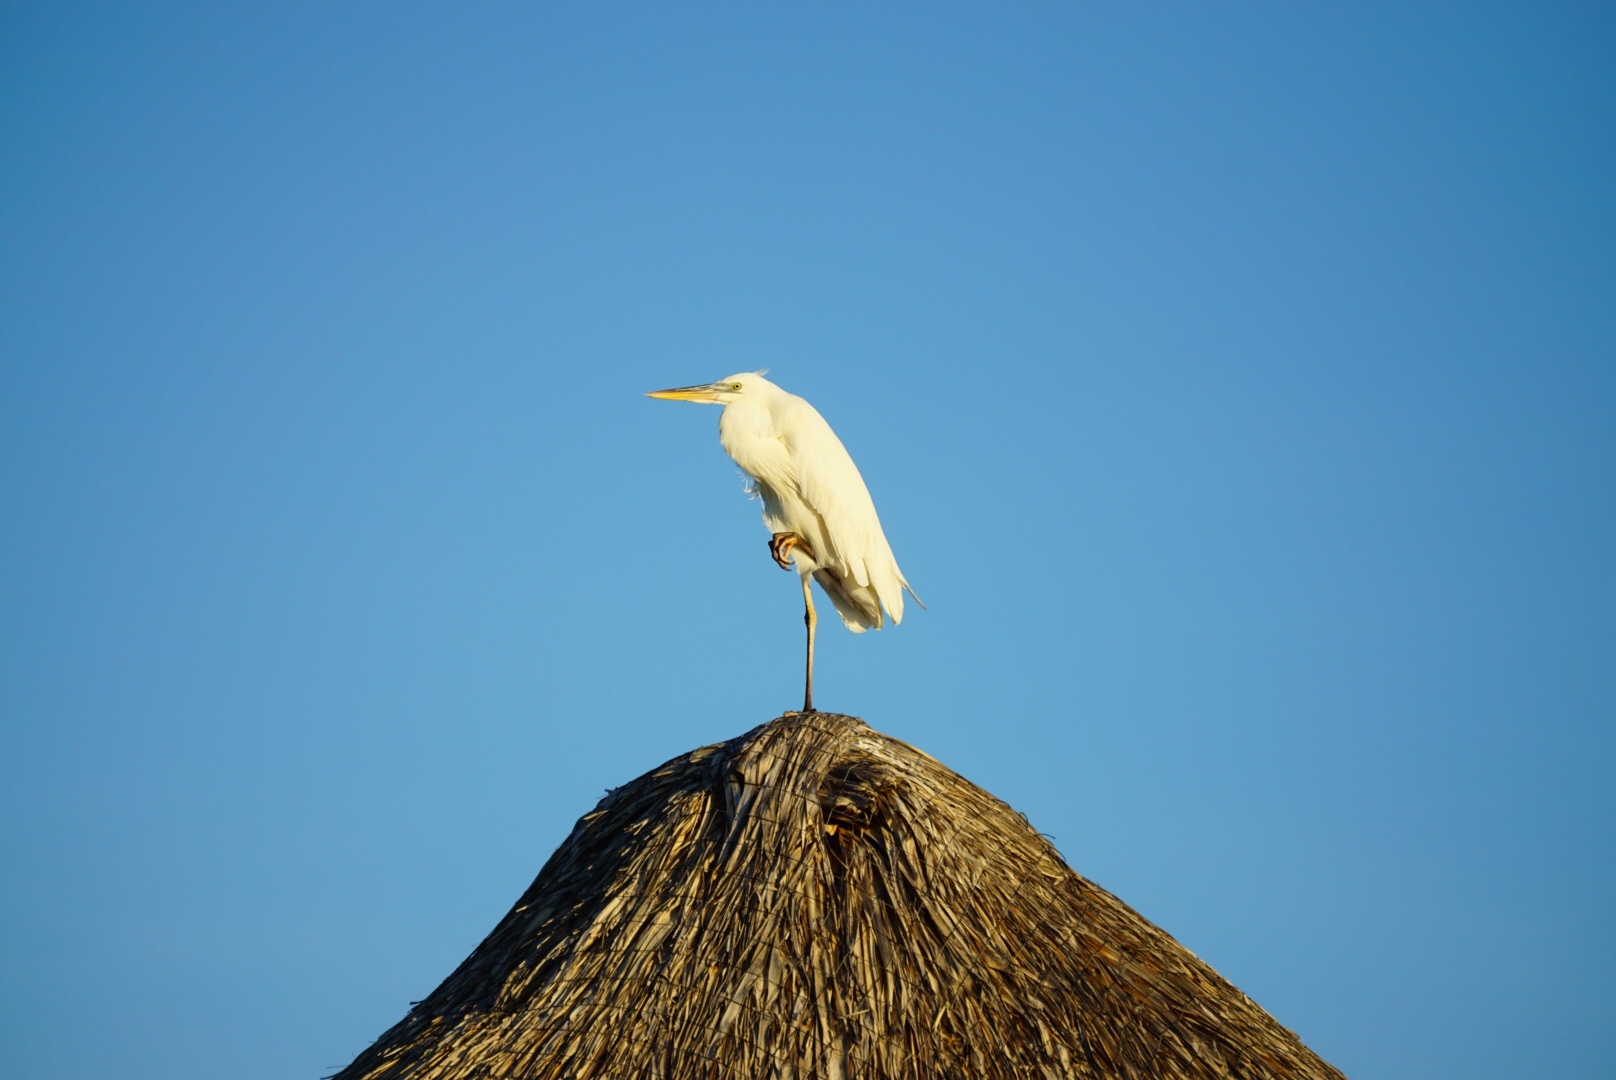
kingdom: Animalia
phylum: Chordata
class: Aves
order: Pelecaniformes
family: Ardeidae
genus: Ardea
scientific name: Ardea herodias
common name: Great blue heron
